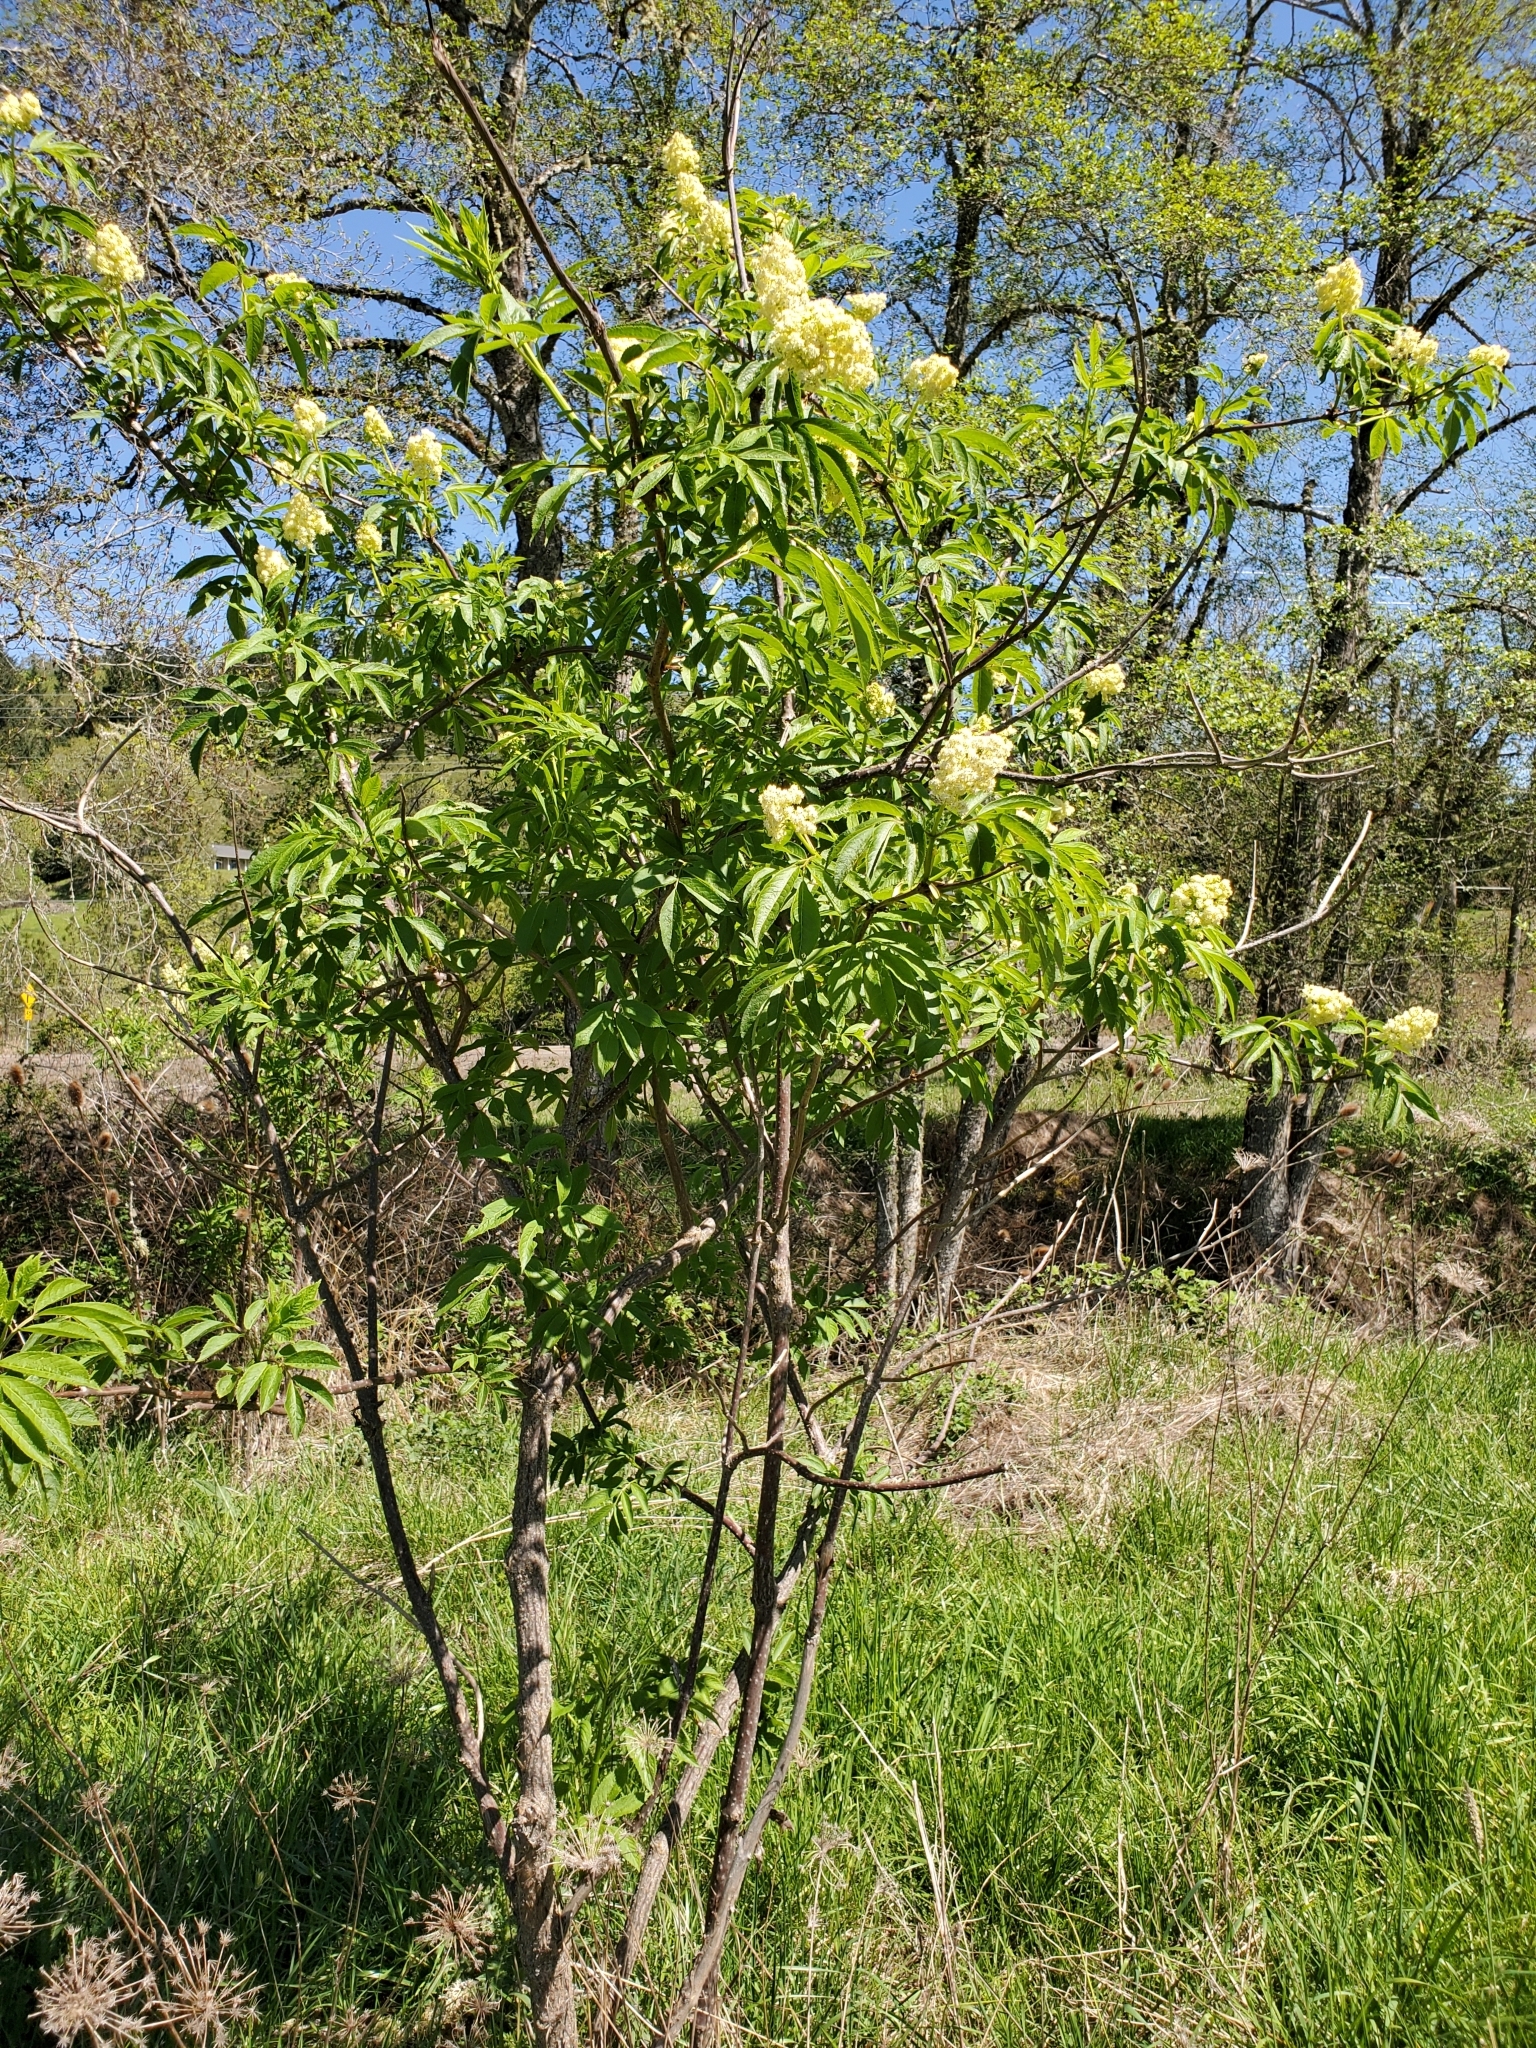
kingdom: Plantae
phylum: Tracheophyta
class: Magnoliopsida
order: Dipsacales
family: Viburnaceae
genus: Sambucus
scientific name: Sambucus racemosa
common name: Red-berried elder
